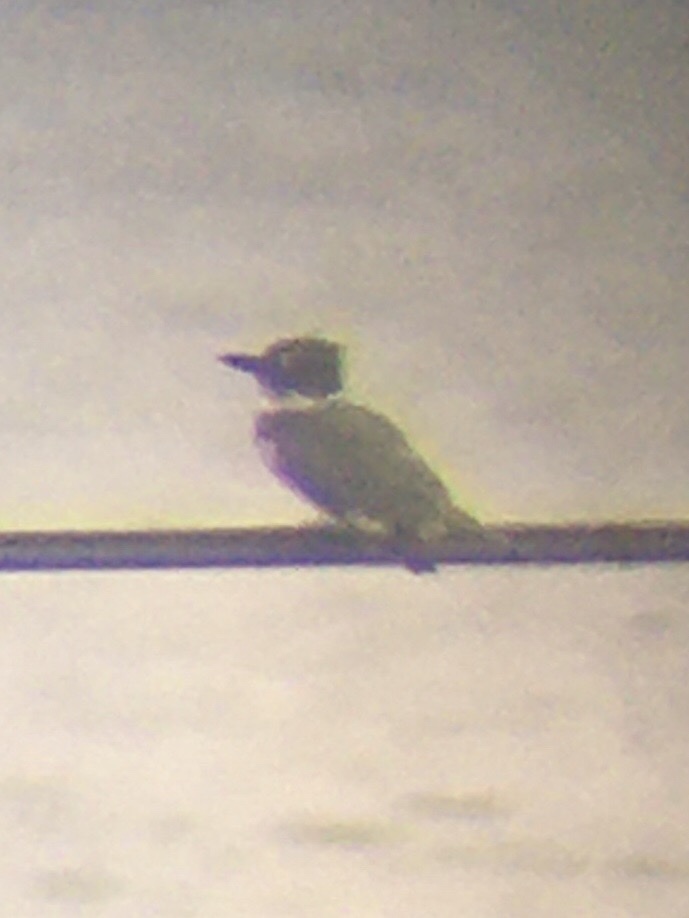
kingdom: Animalia
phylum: Chordata
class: Aves
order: Coraciiformes
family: Alcedinidae
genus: Megaceryle
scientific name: Megaceryle alcyon
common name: Belted kingfisher
